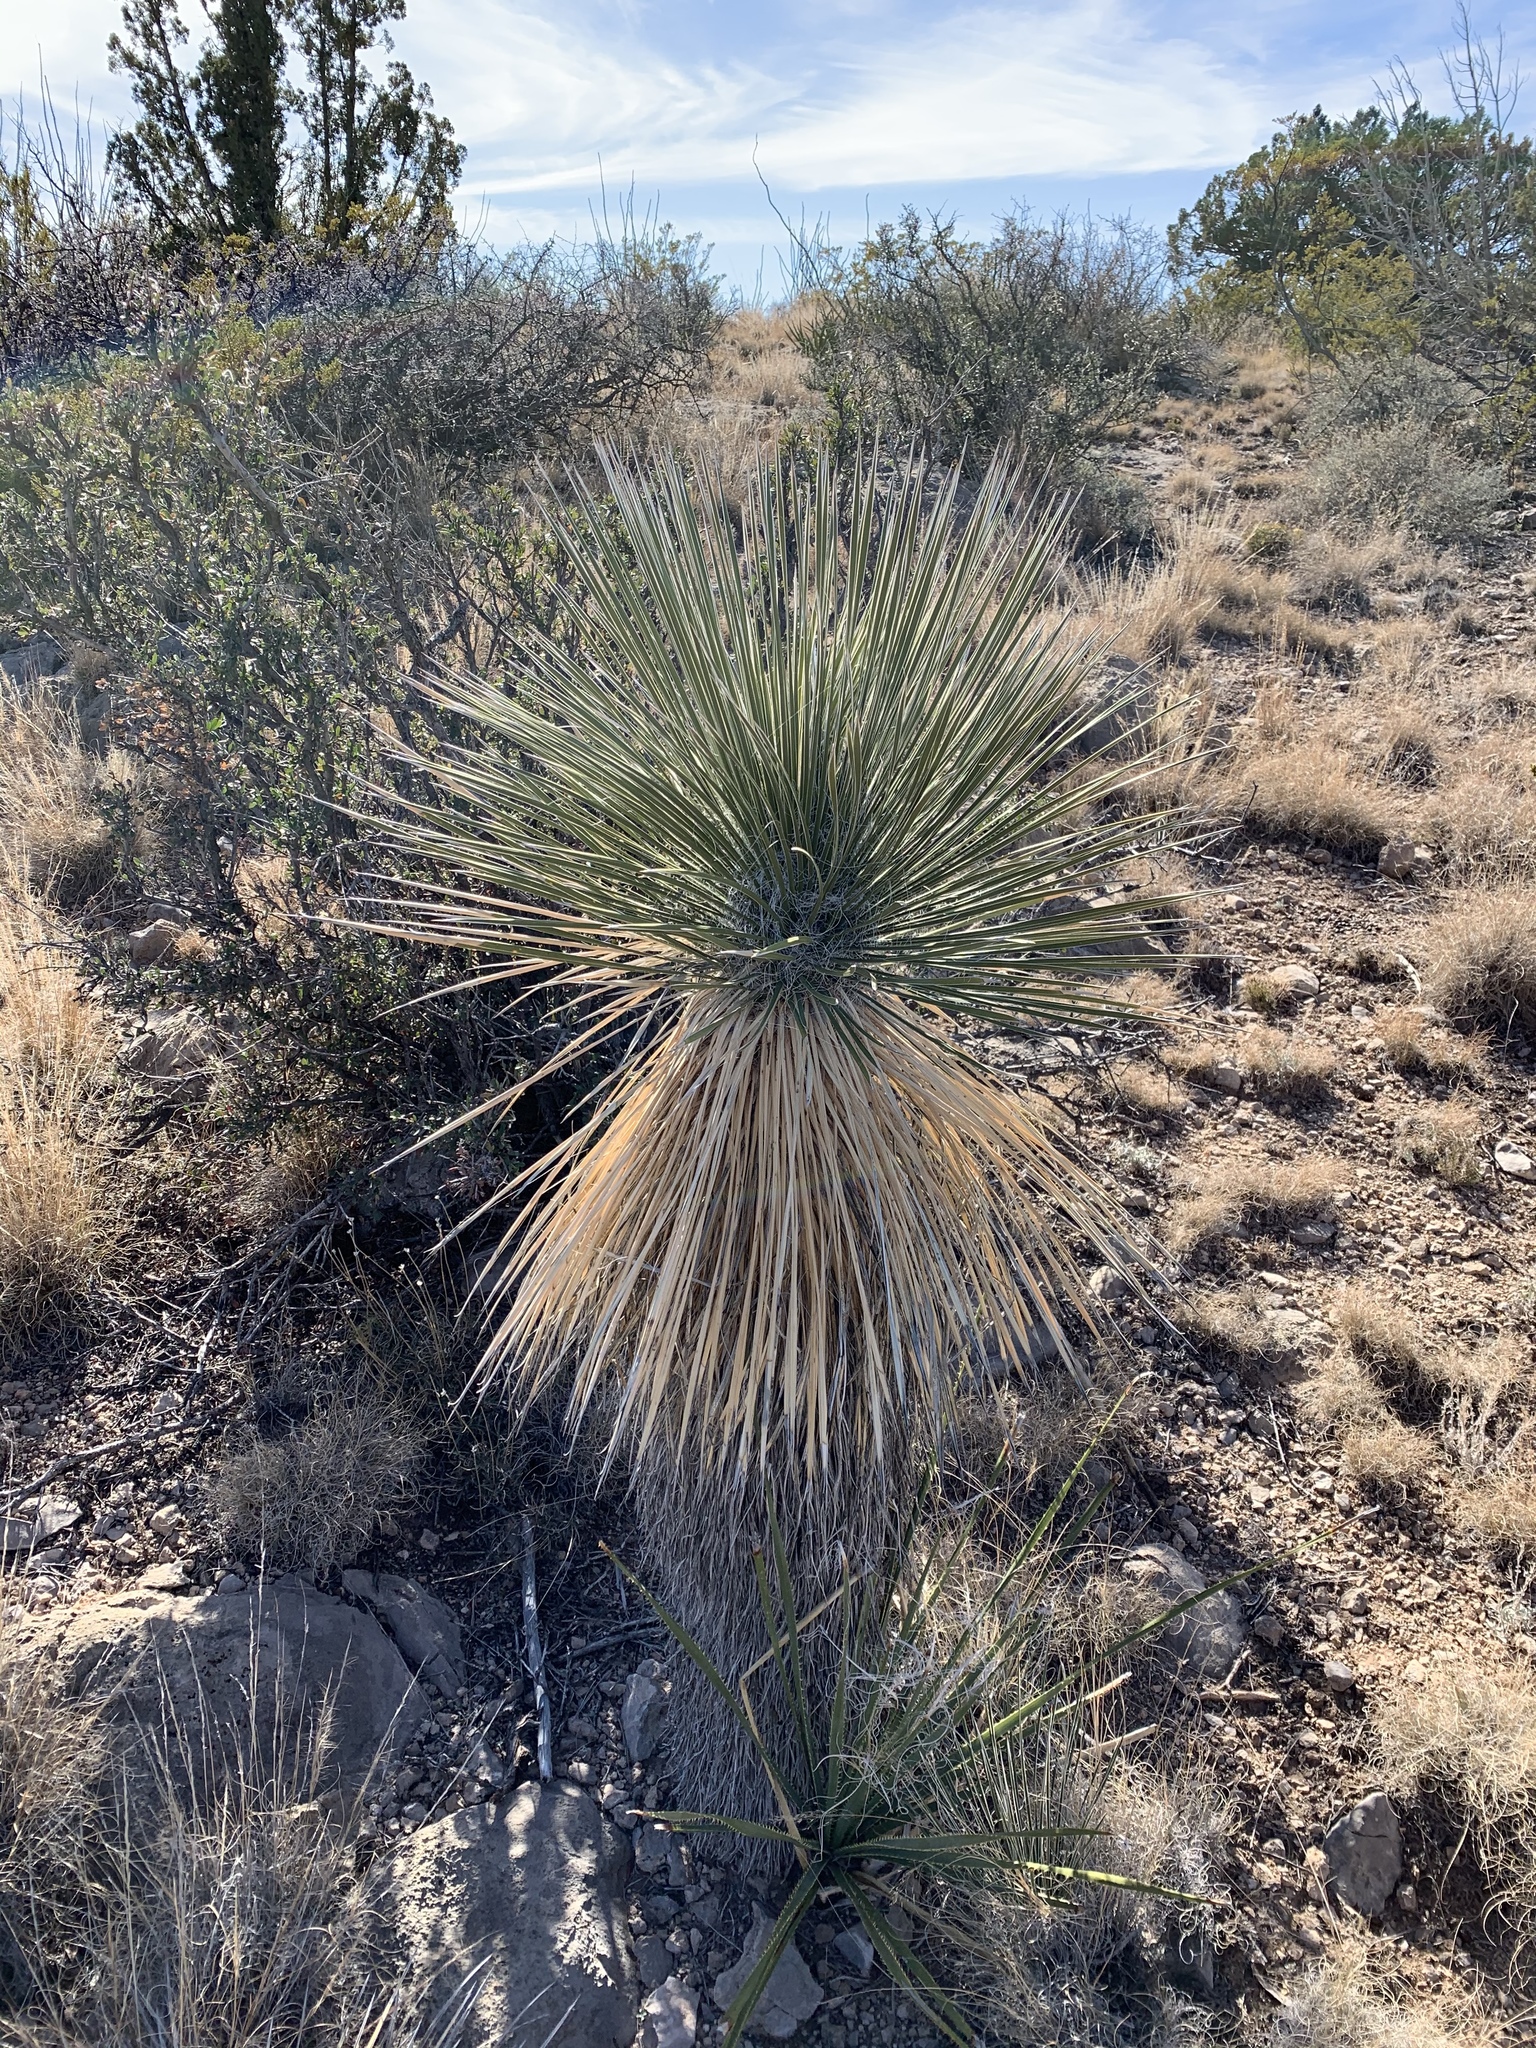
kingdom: Plantae
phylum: Tracheophyta
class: Liliopsida
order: Asparagales
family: Asparagaceae
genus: Dasylirion
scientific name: Dasylirion wheeleri
